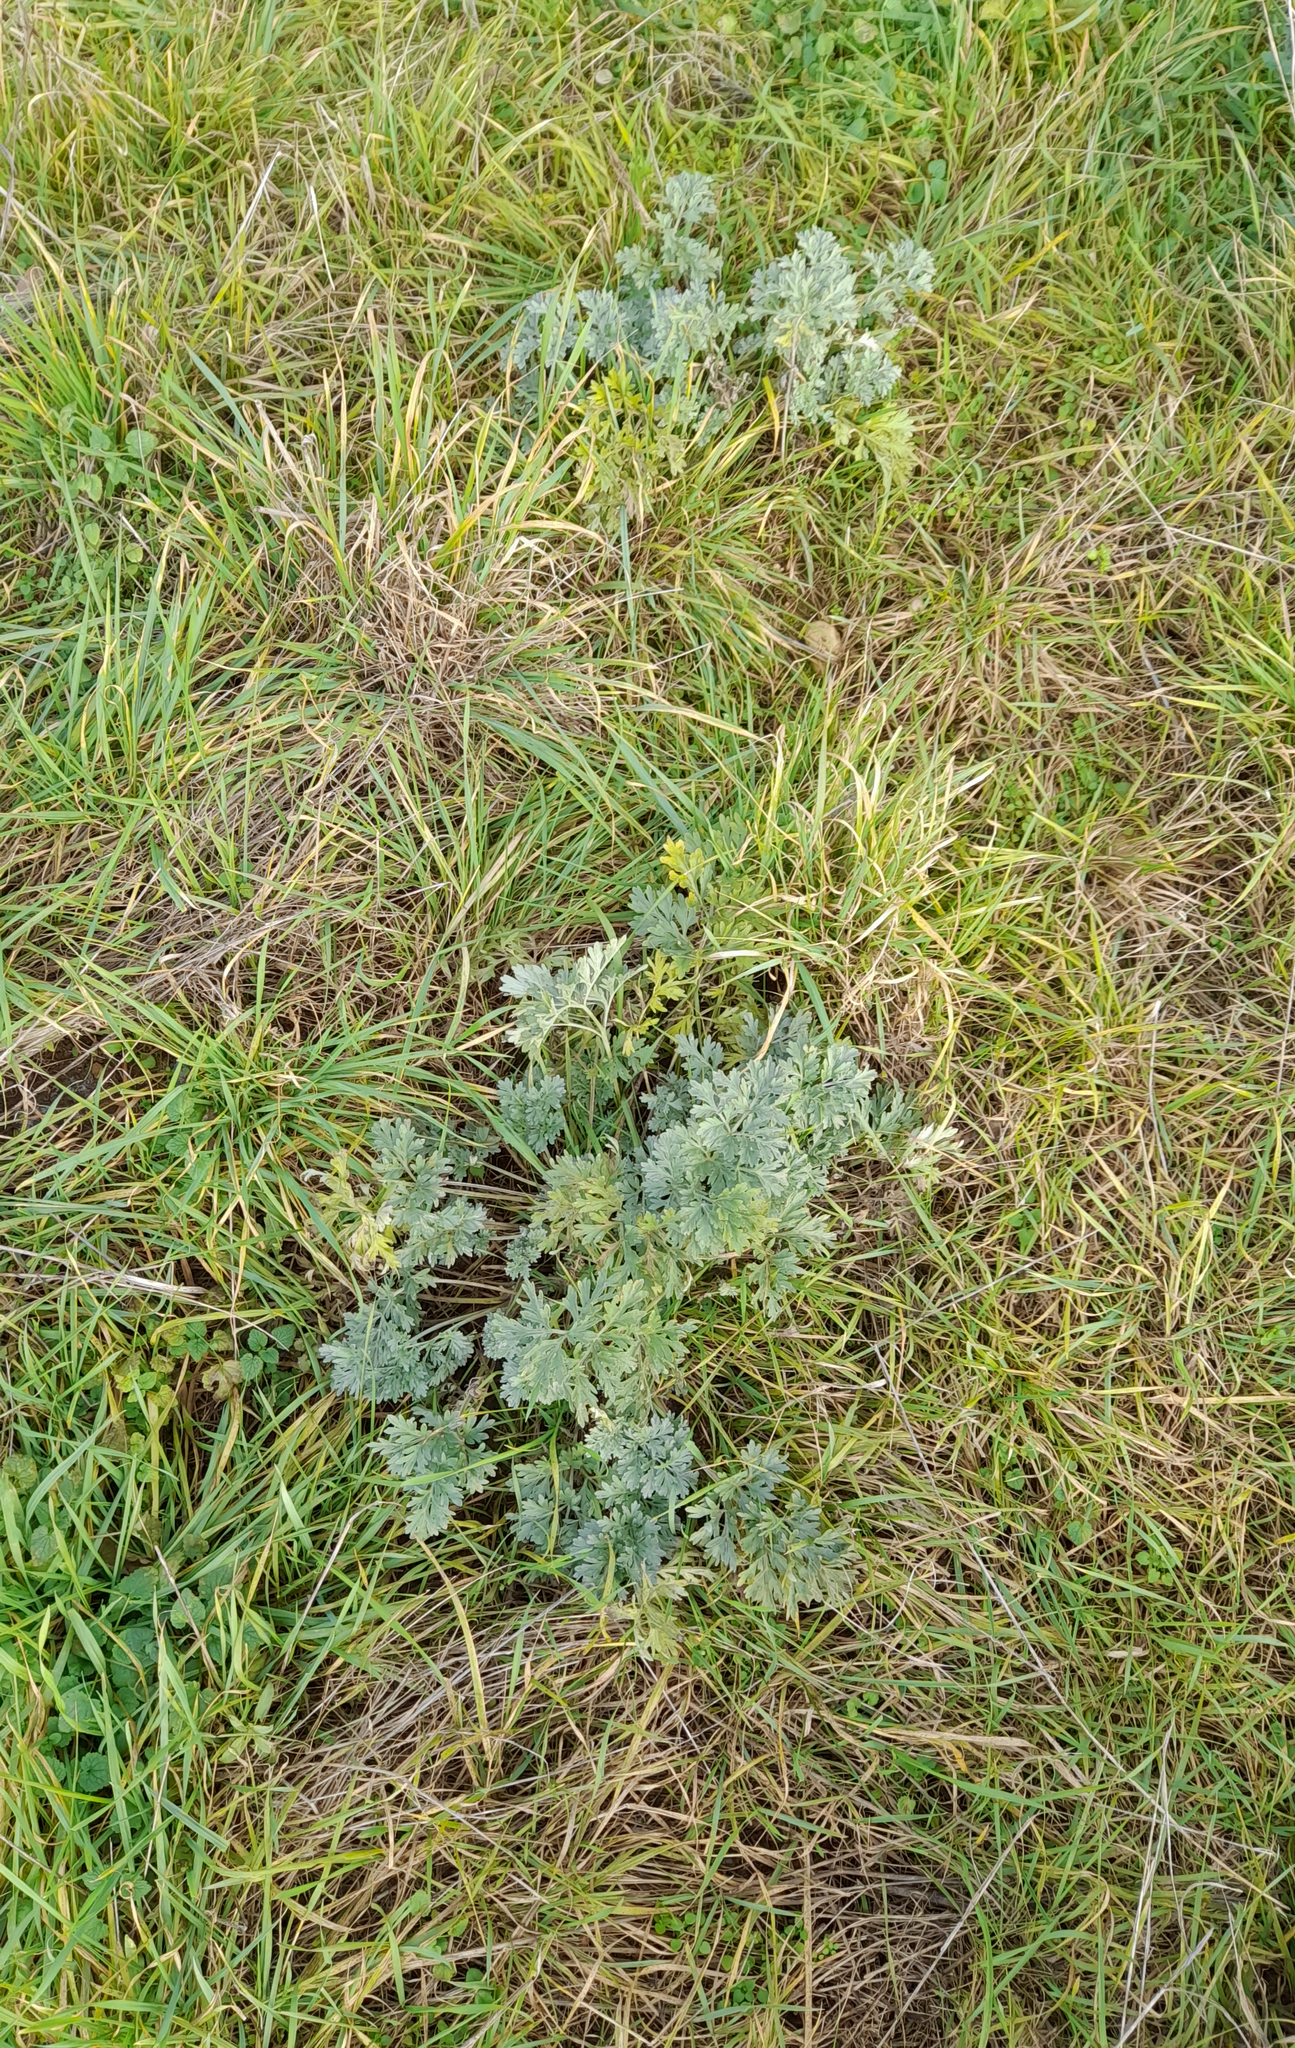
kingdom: Plantae
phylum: Tracheophyta
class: Magnoliopsida
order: Asterales
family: Asteraceae
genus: Artemisia
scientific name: Artemisia absinthium
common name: Wormwood
